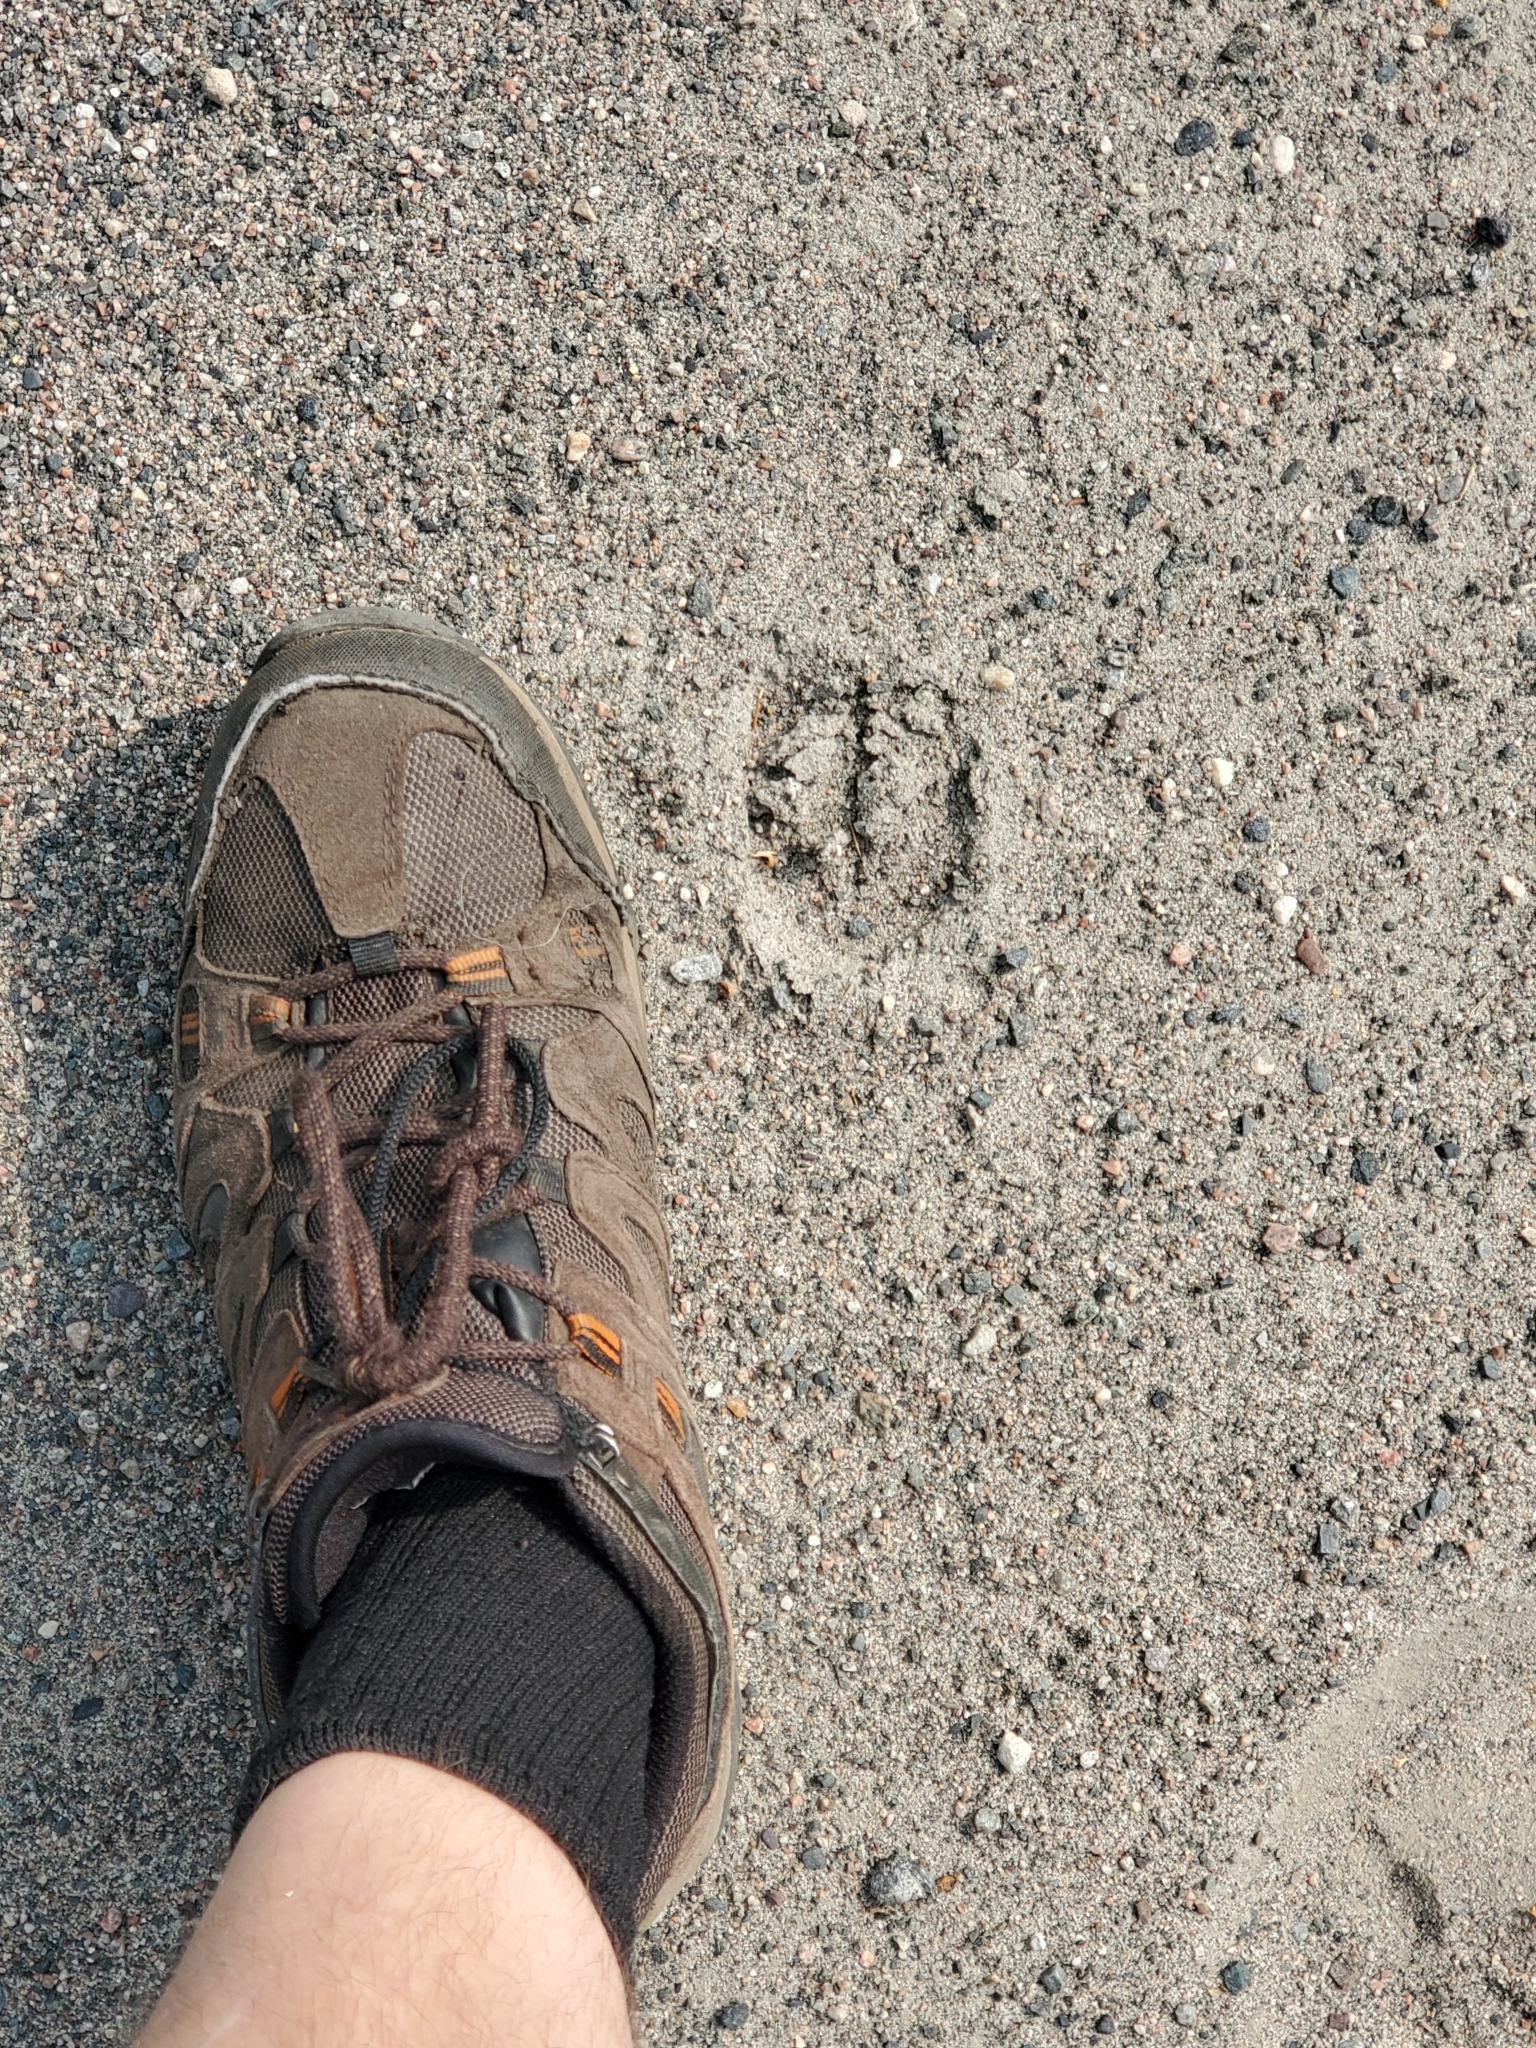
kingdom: Animalia
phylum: Chordata
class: Mammalia
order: Artiodactyla
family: Cervidae
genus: Odocoileus
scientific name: Odocoileus virginianus
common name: White-tailed deer
